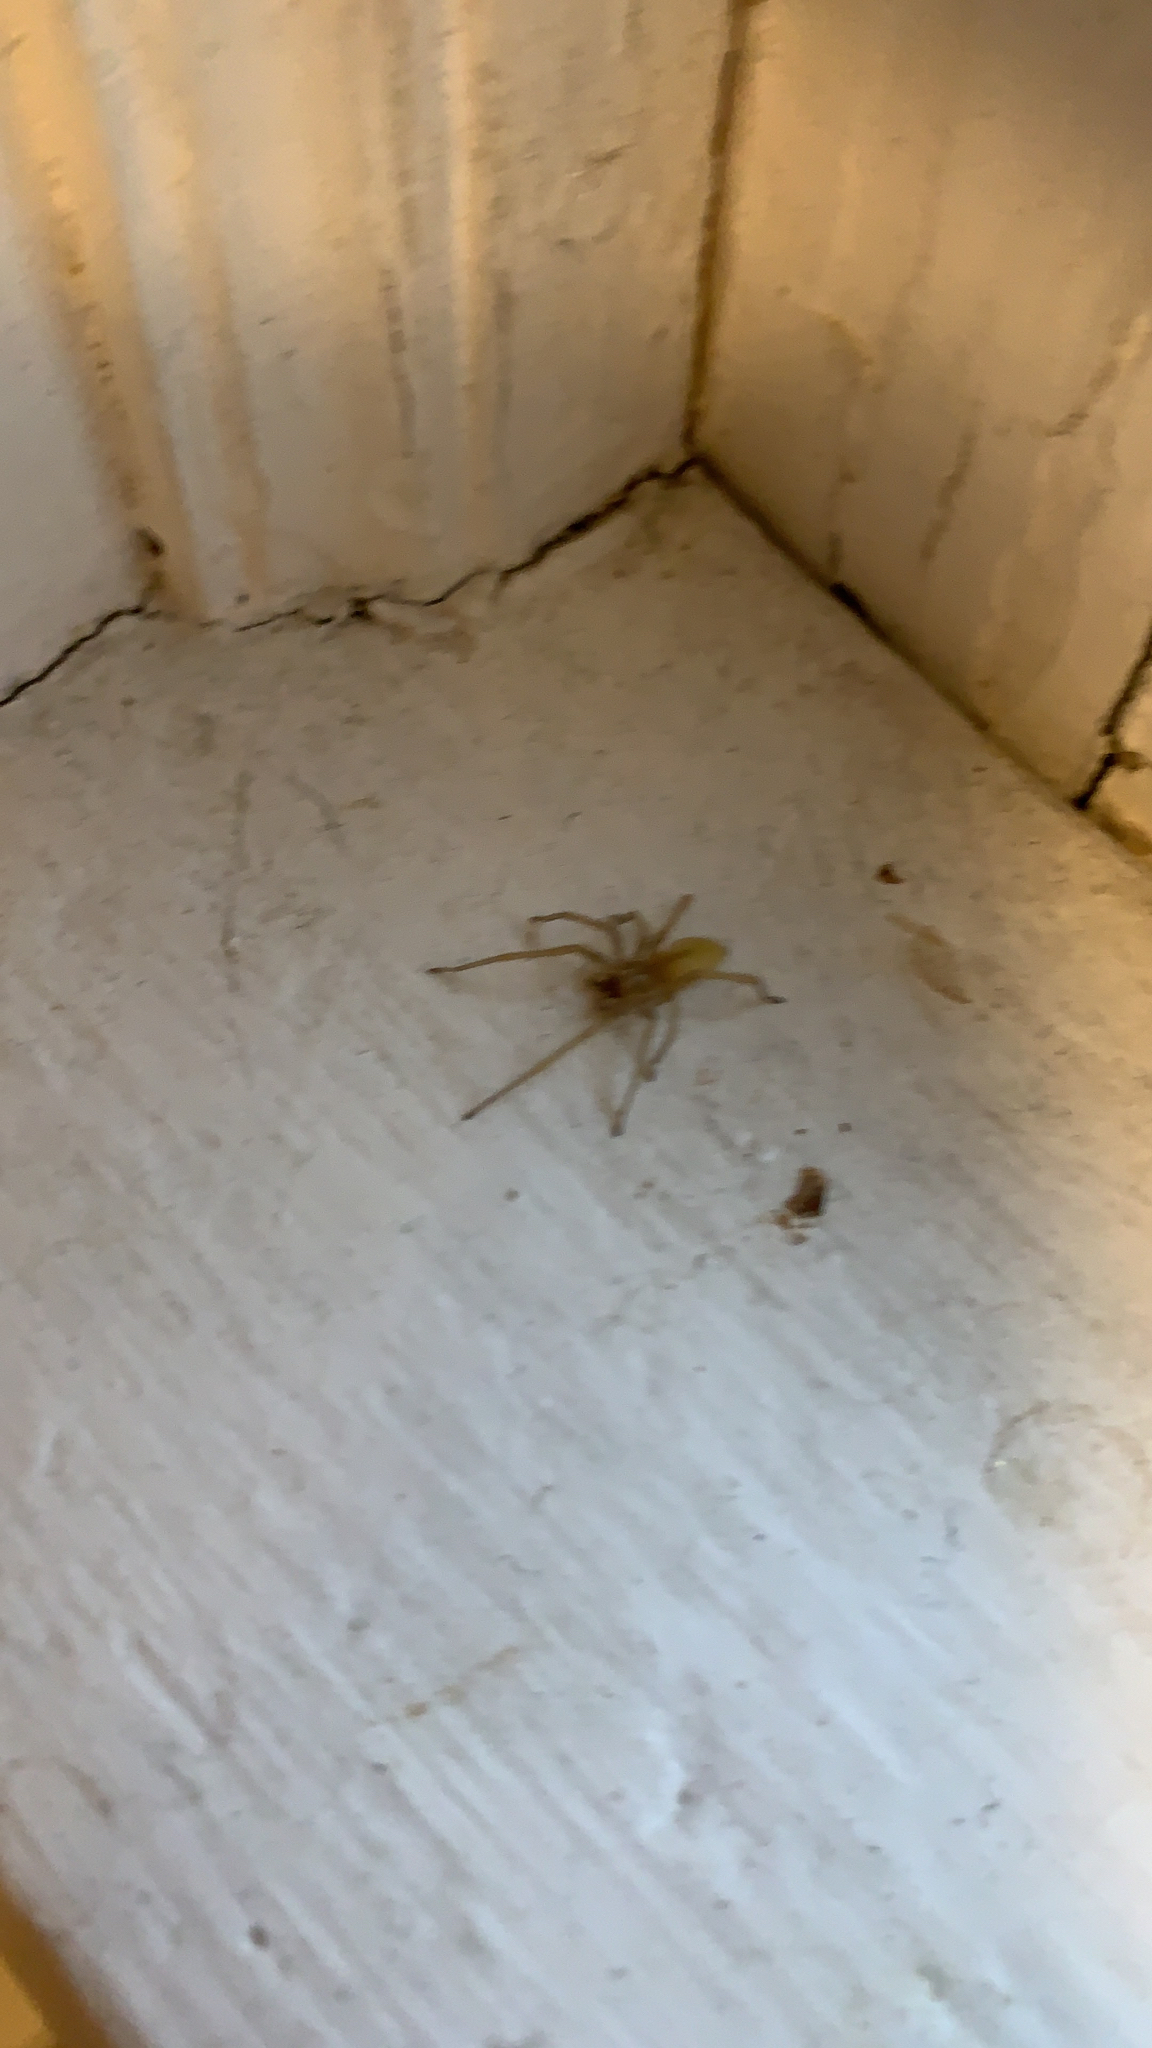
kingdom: Animalia
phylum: Arthropoda
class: Arachnida
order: Araneae
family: Cheiracanthiidae
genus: Cheiracanthium
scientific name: Cheiracanthium mildei
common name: Northern yellow sac spider
